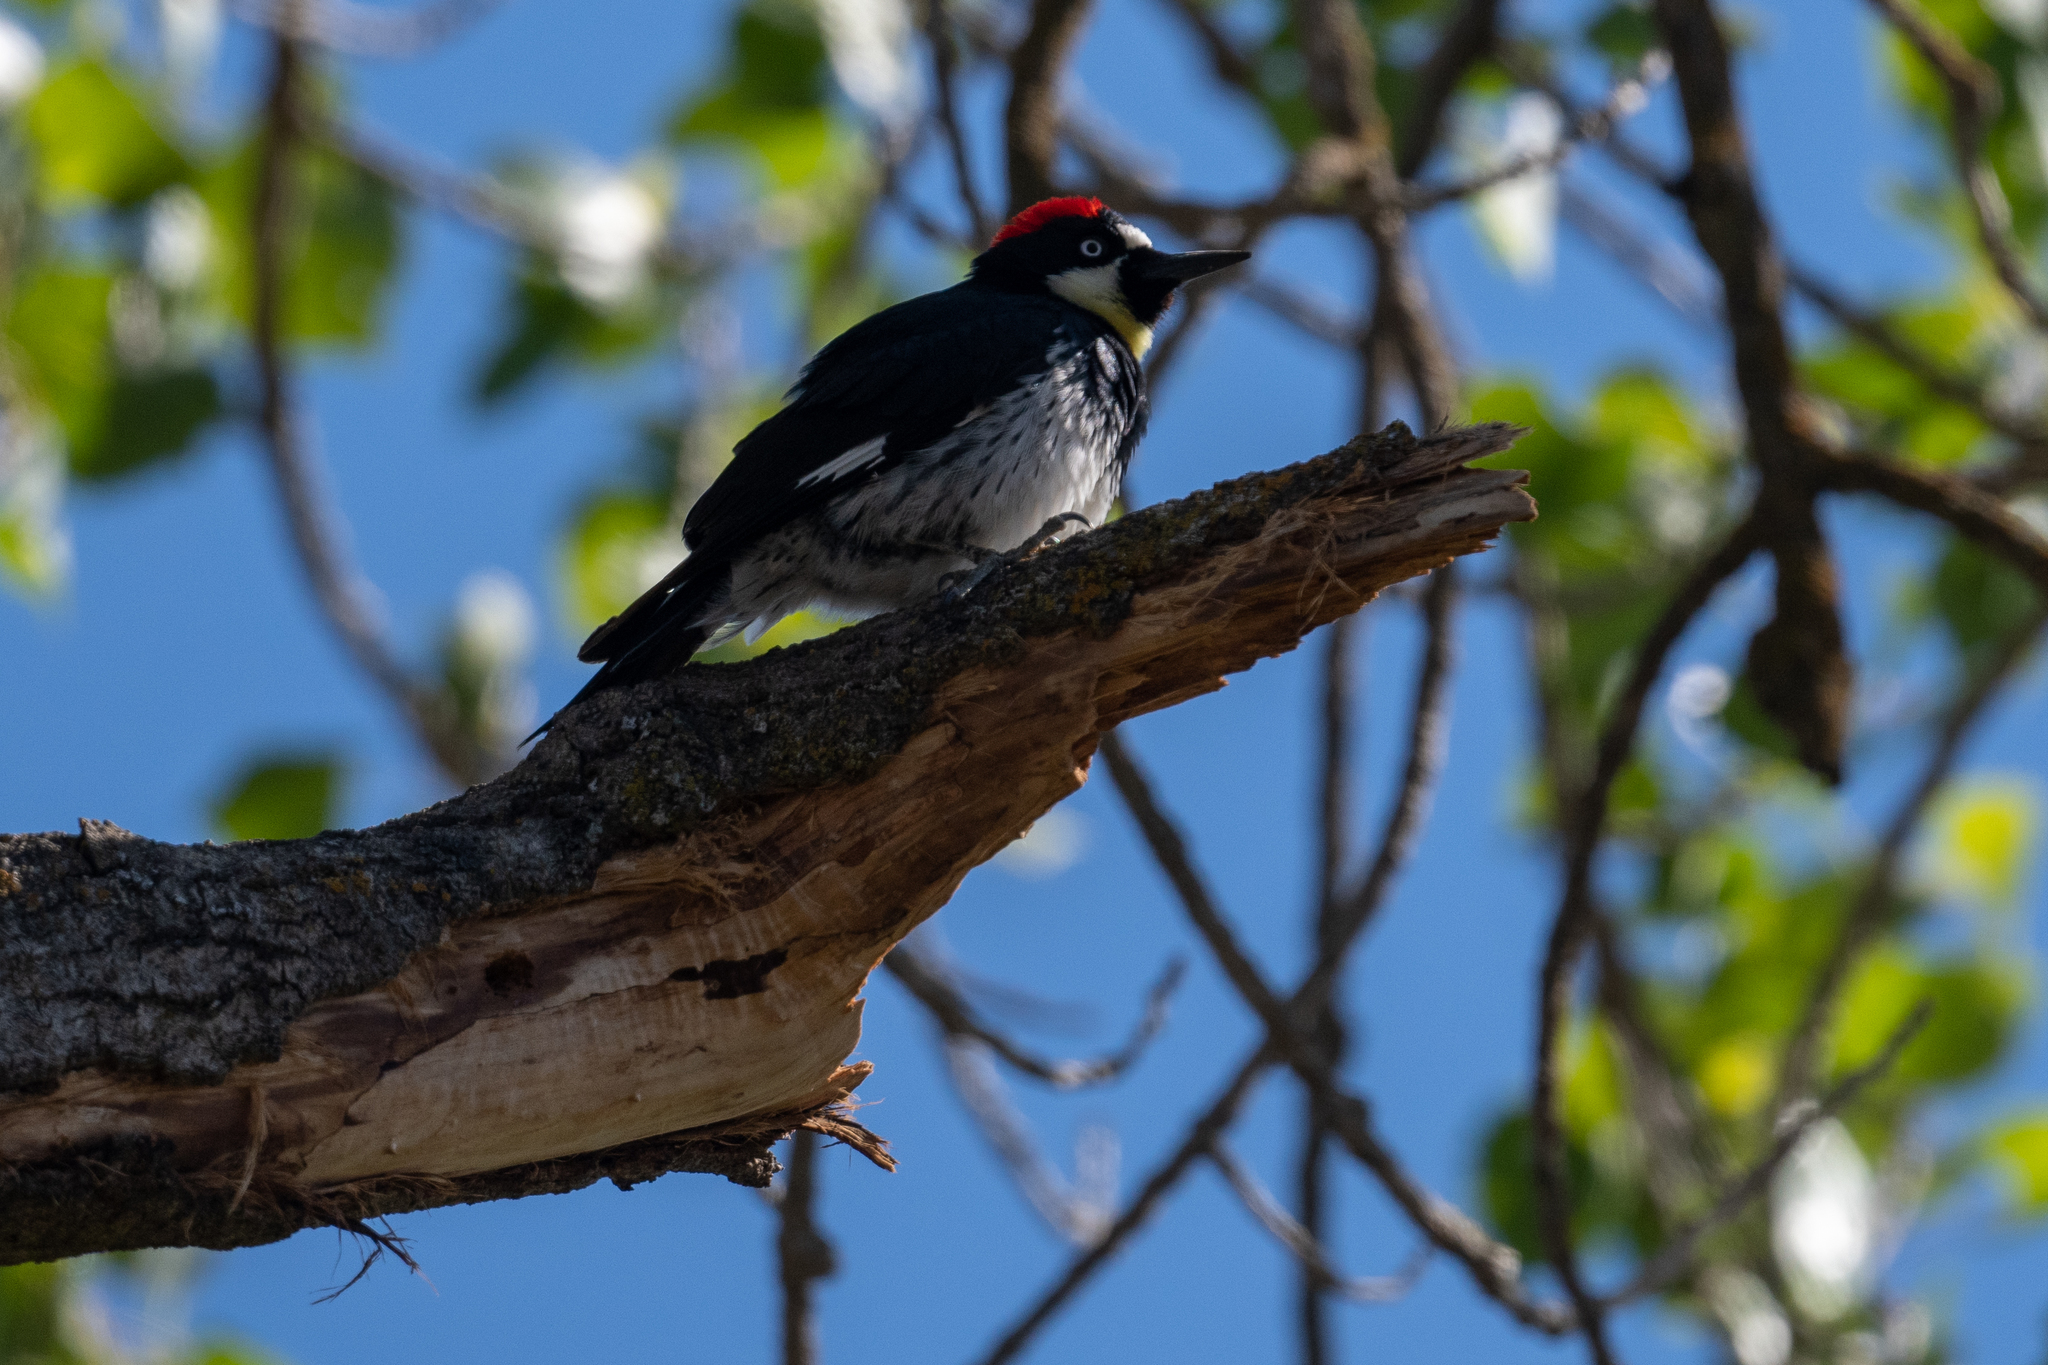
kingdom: Animalia
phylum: Chordata
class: Aves
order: Piciformes
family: Picidae
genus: Melanerpes
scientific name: Melanerpes formicivorus
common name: Acorn woodpecker
